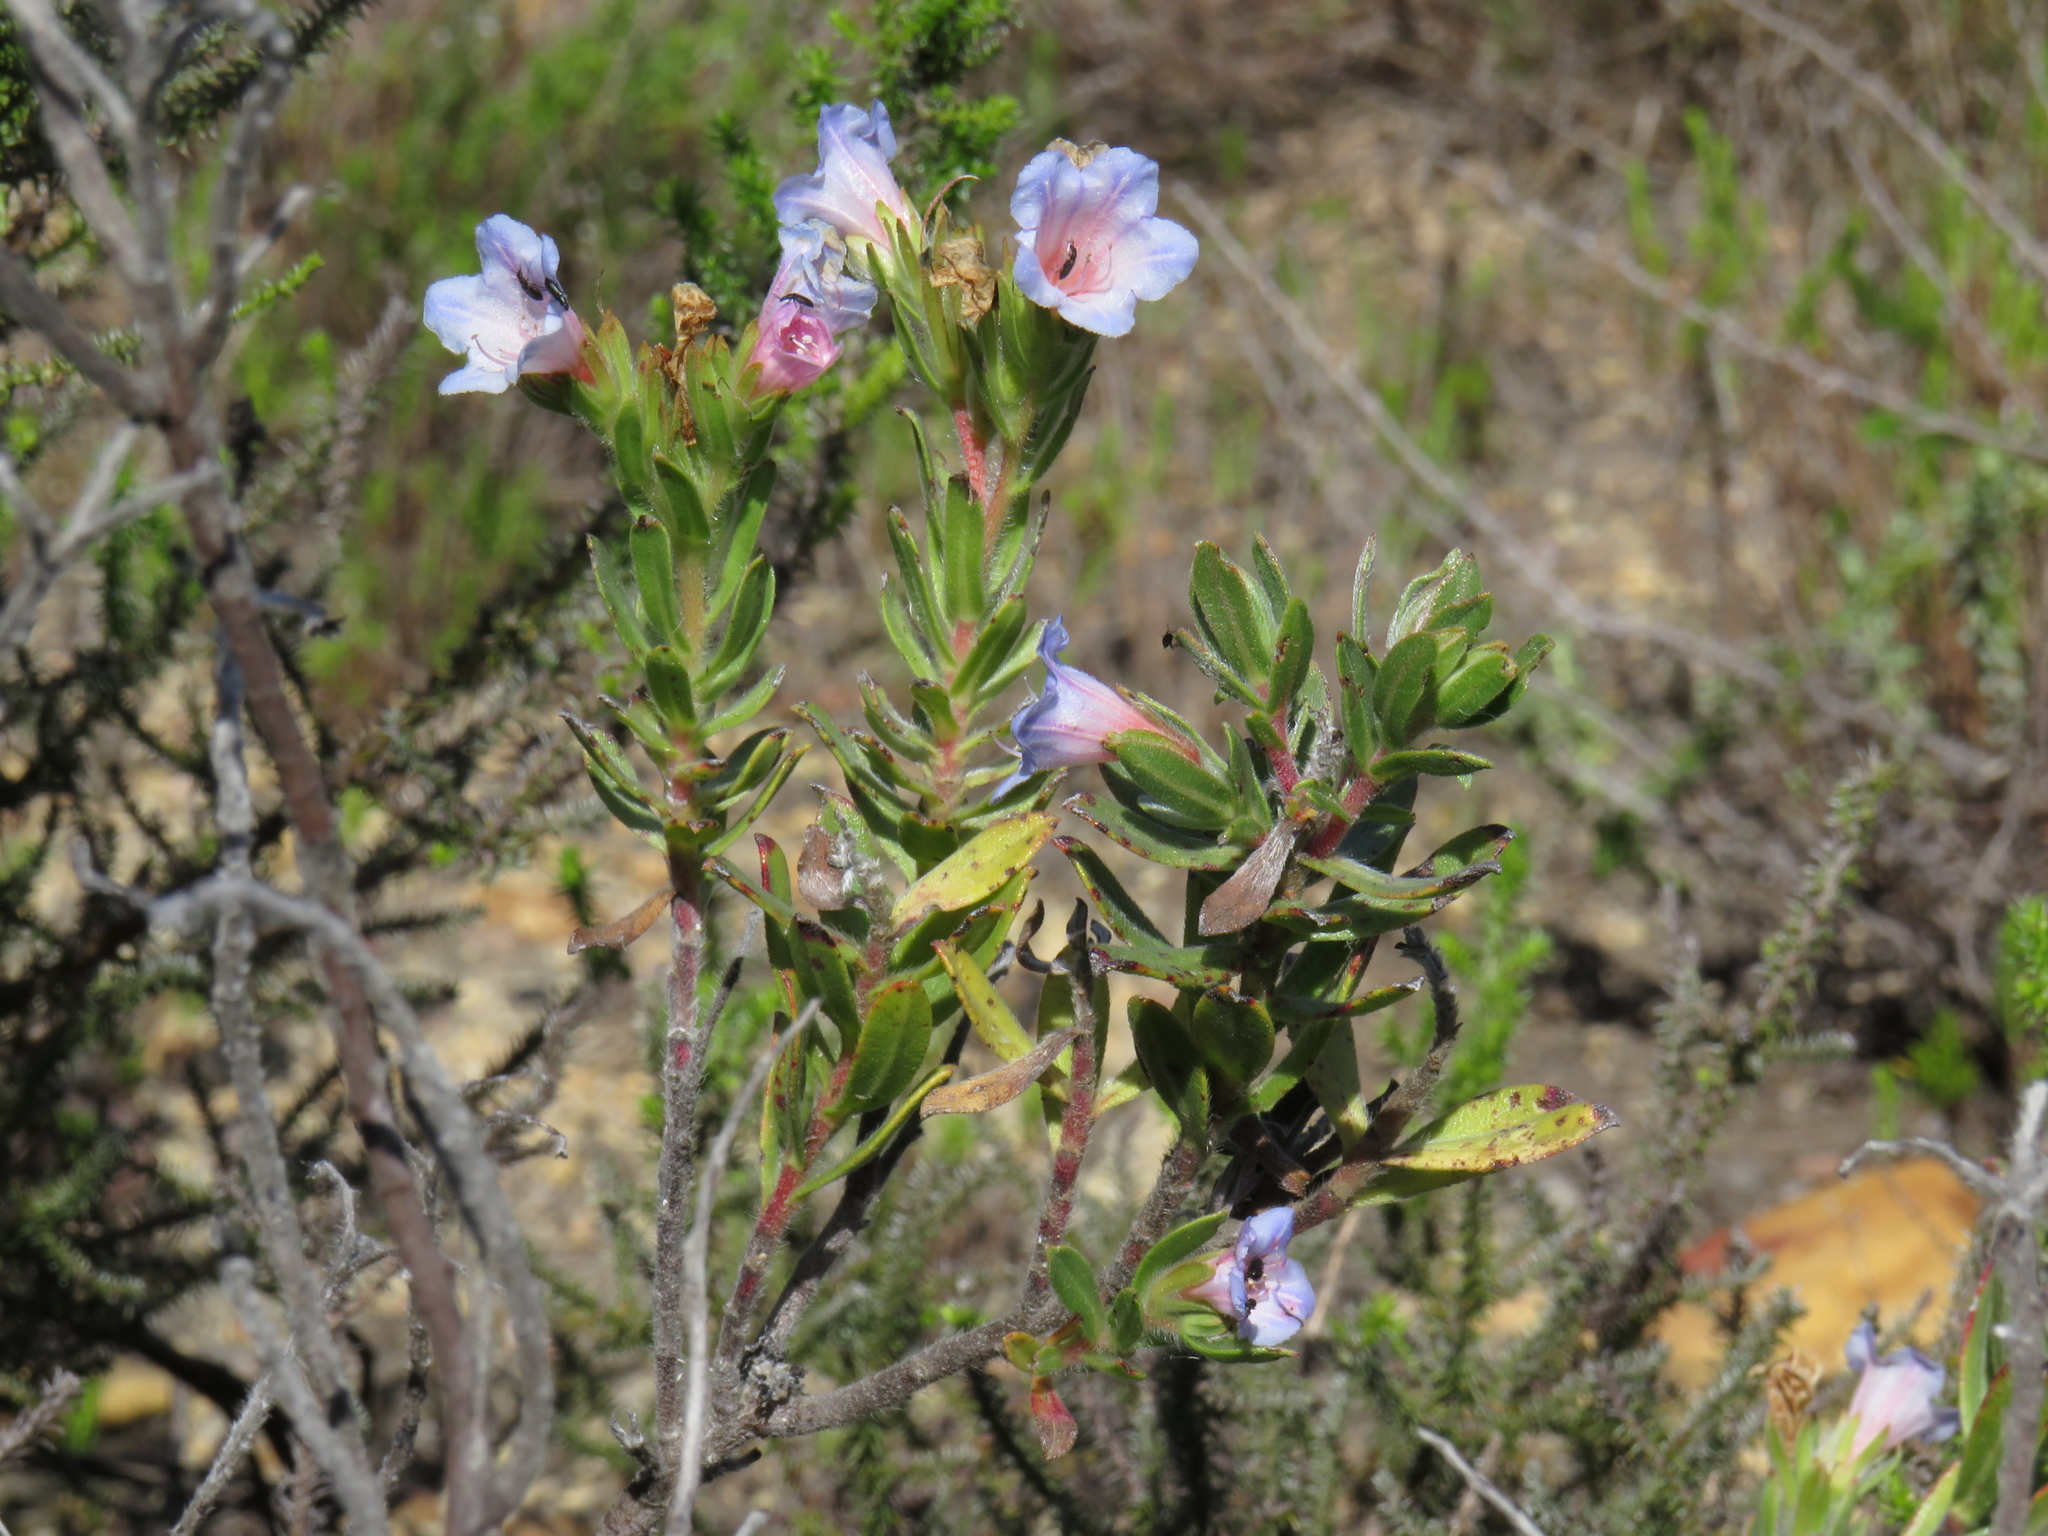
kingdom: Plantae
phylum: Tracheophyta
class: Magnoliopsida
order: Boraginales
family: Boraginaceae
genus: Lobostemon
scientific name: Lobostemon fruticosus
